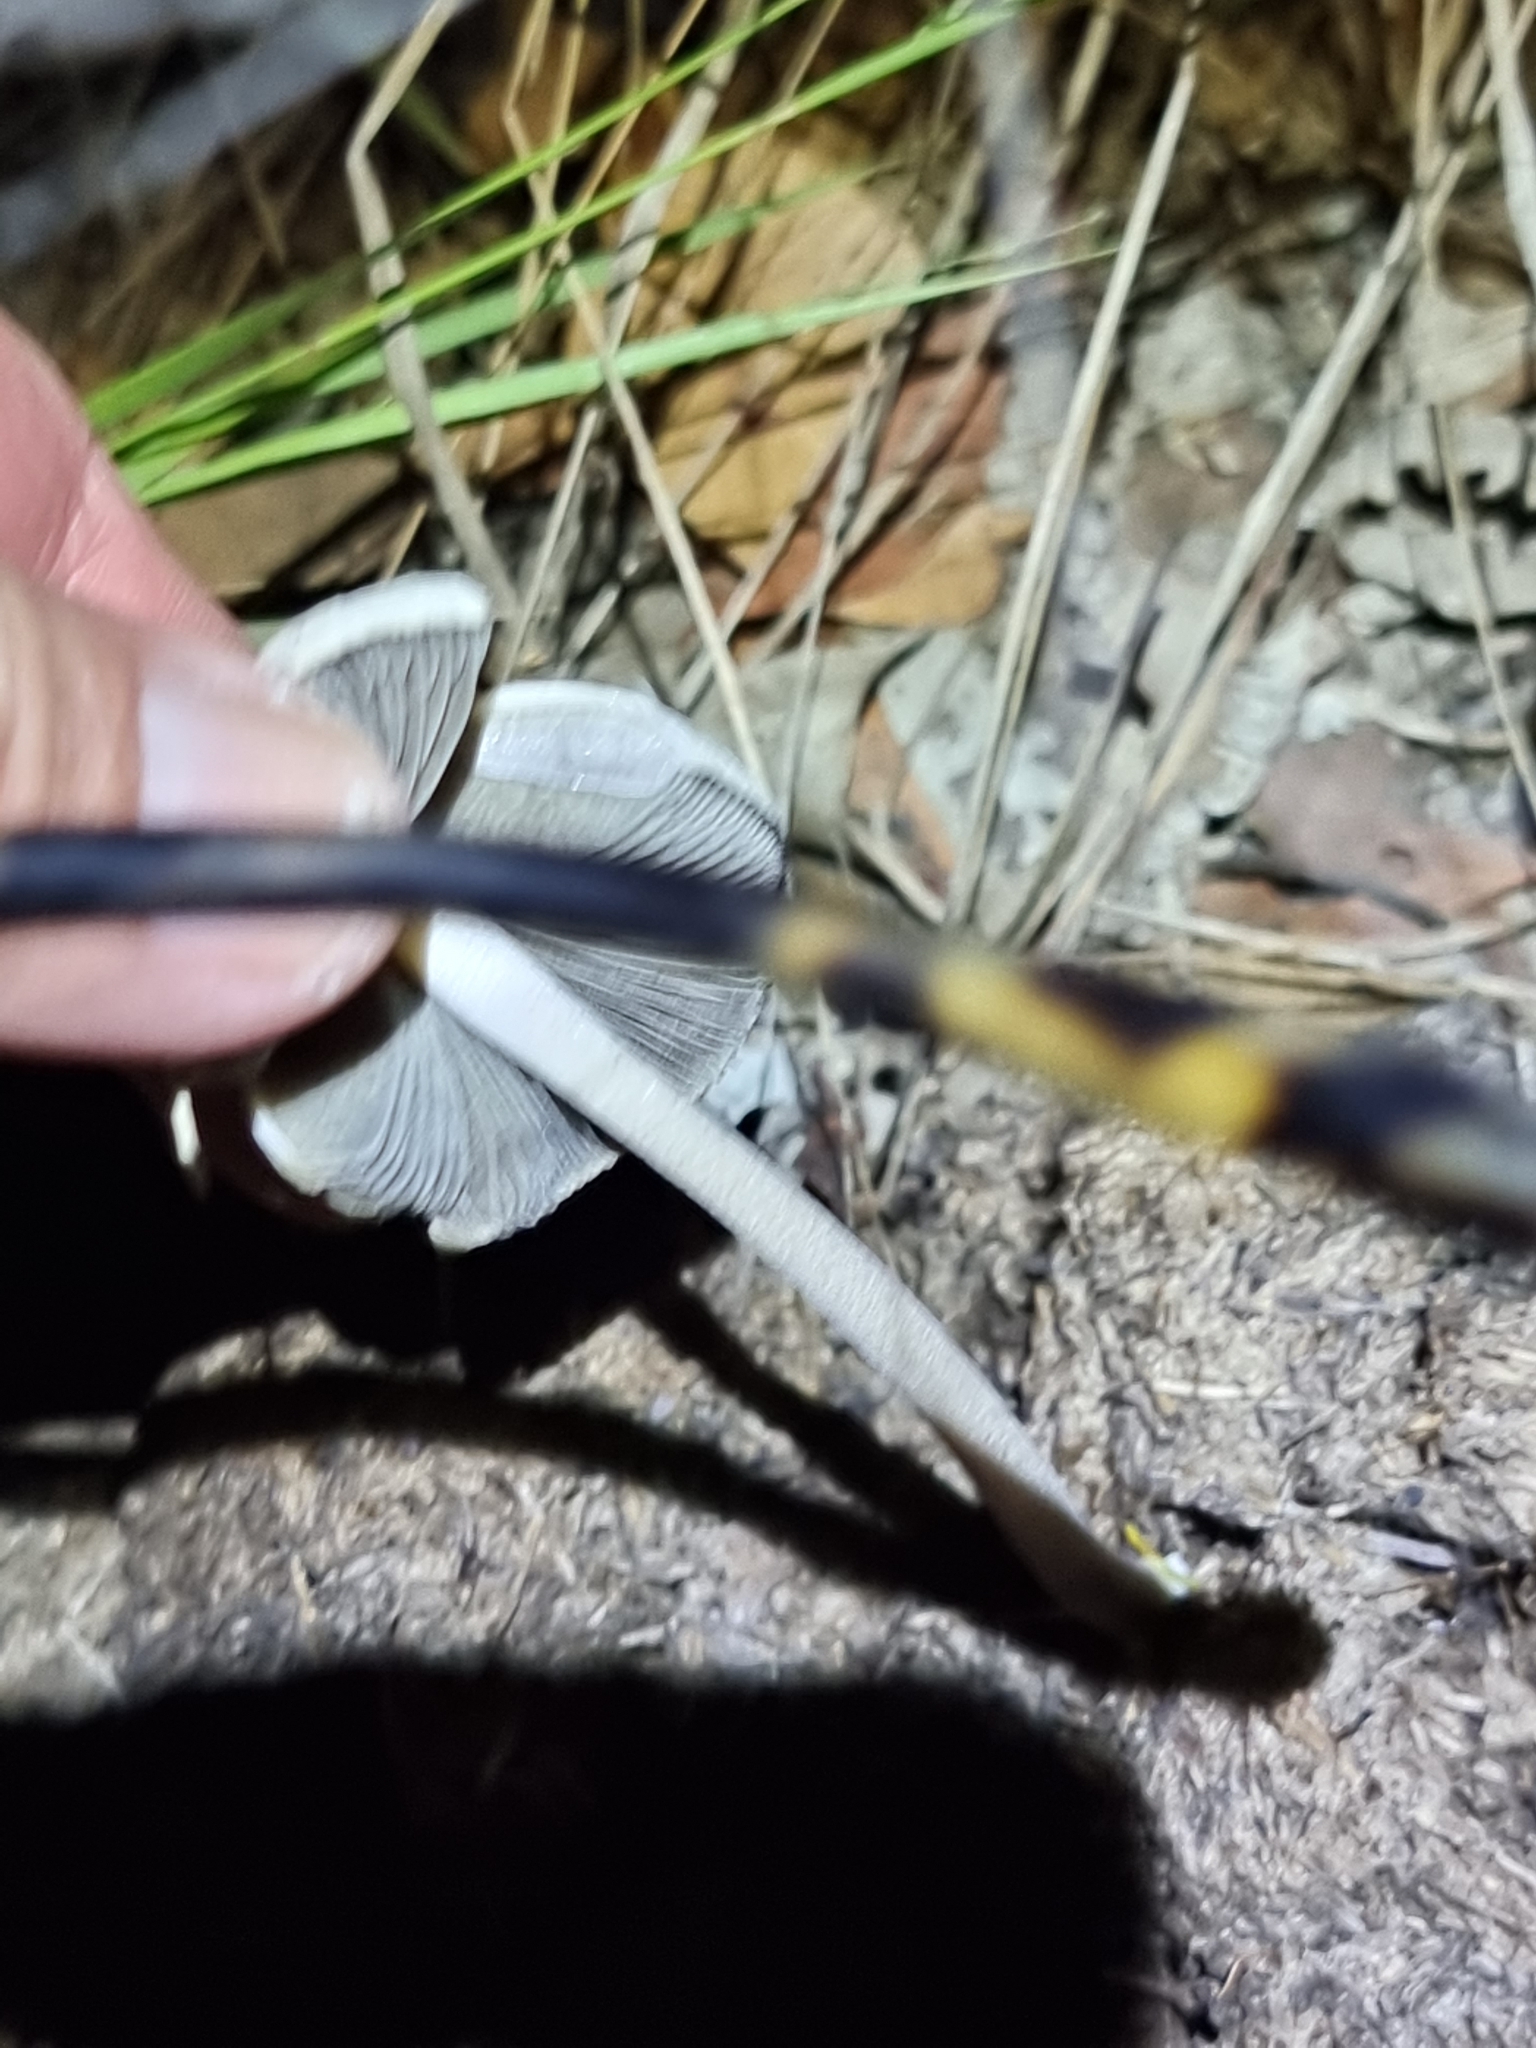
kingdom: Fungi
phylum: Basidiomycota
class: Agaricomycetes
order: Agaricales
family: Bolbitiaceae
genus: Panaeolus
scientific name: Panaeolus antillarum
